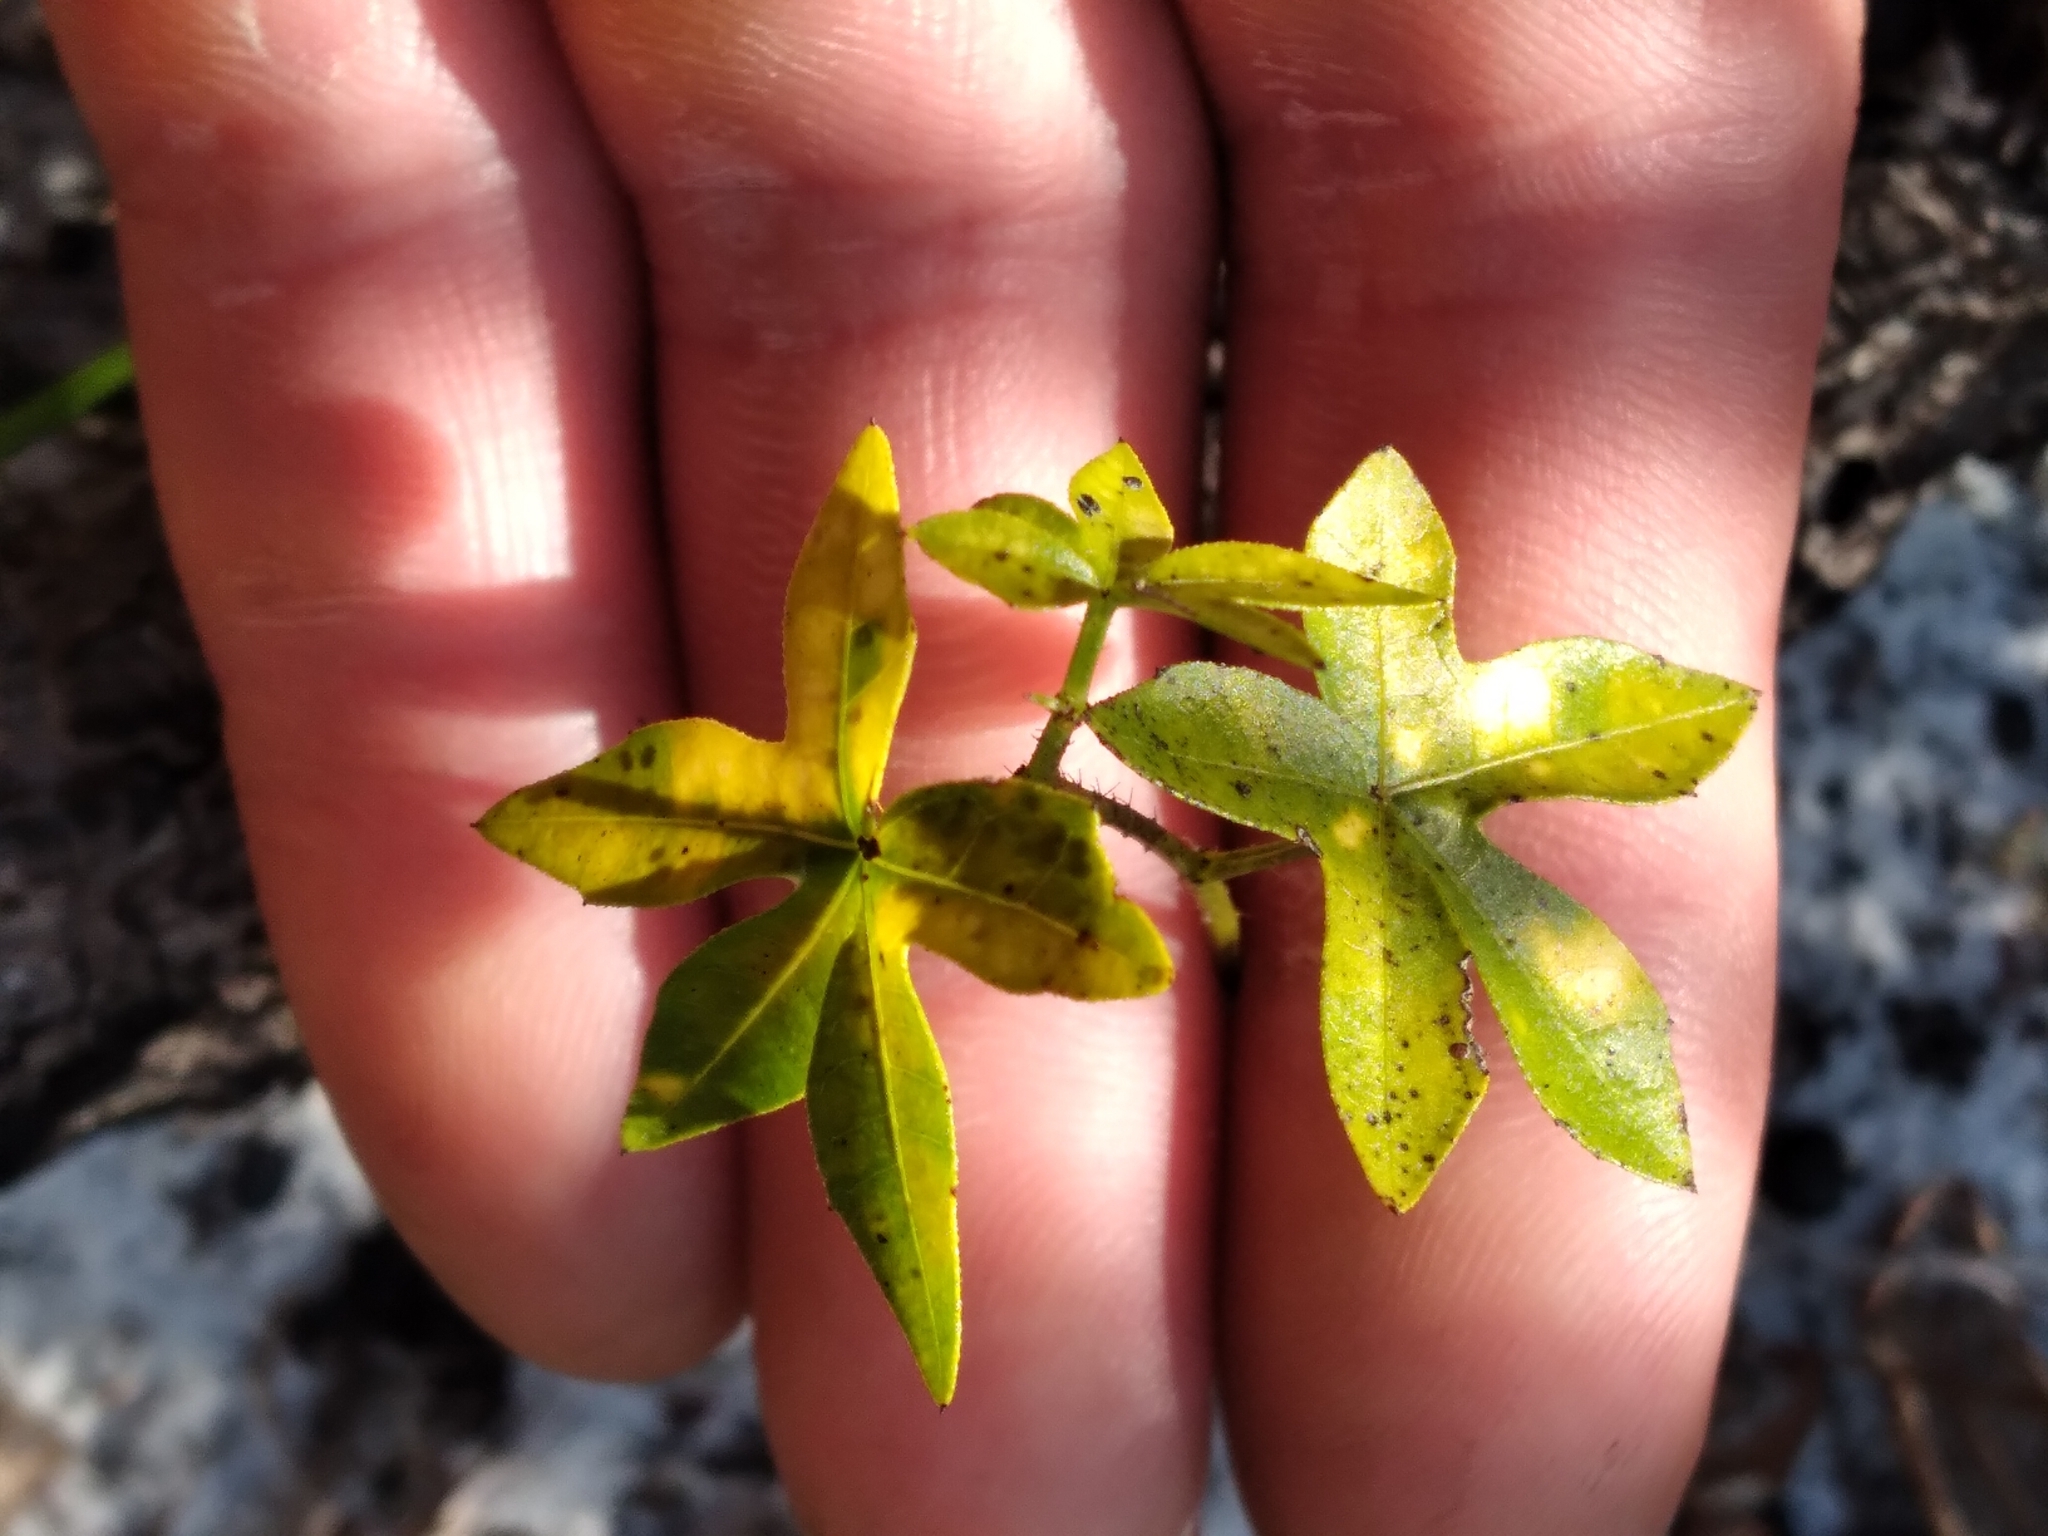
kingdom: Plantae
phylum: Tracheophyta
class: Magnoliopsida
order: Malpighiales
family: Euphorbiaceae
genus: Cnidoscolus
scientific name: Cnidoscolus stimulosus
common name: Bull-nettle
